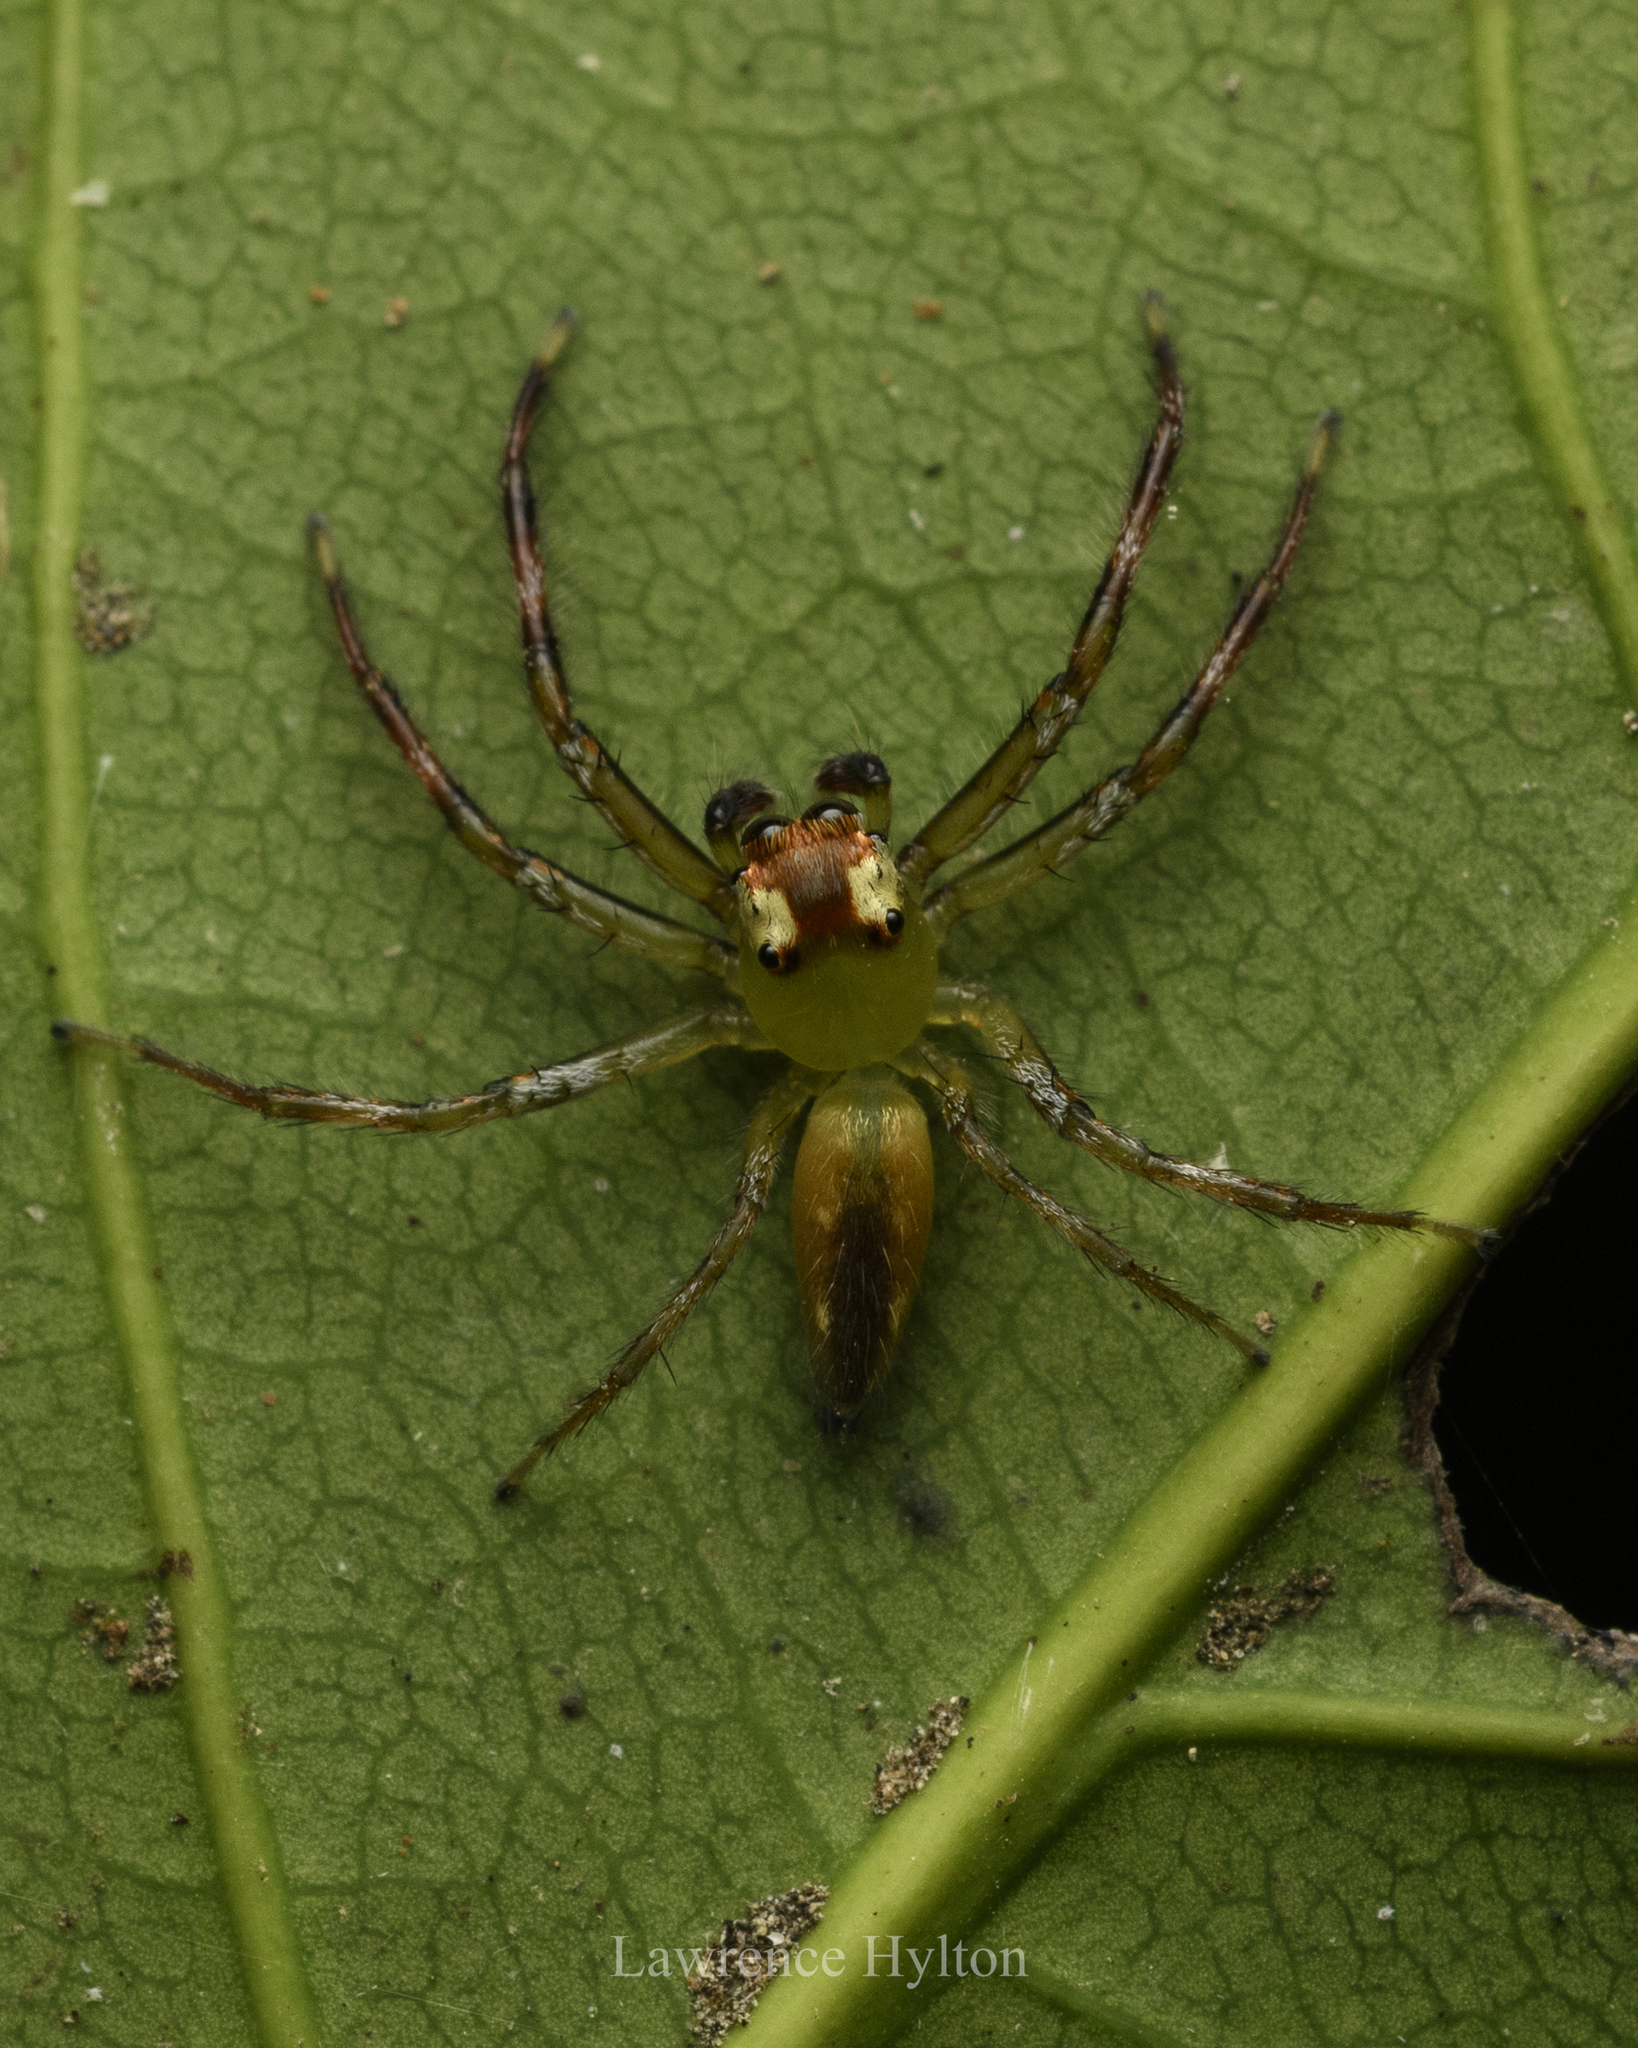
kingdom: Animalia
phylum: Arthropoda
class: Arachnida
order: Araneae
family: Salticidae
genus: Epeus
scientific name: Epeus glorius
